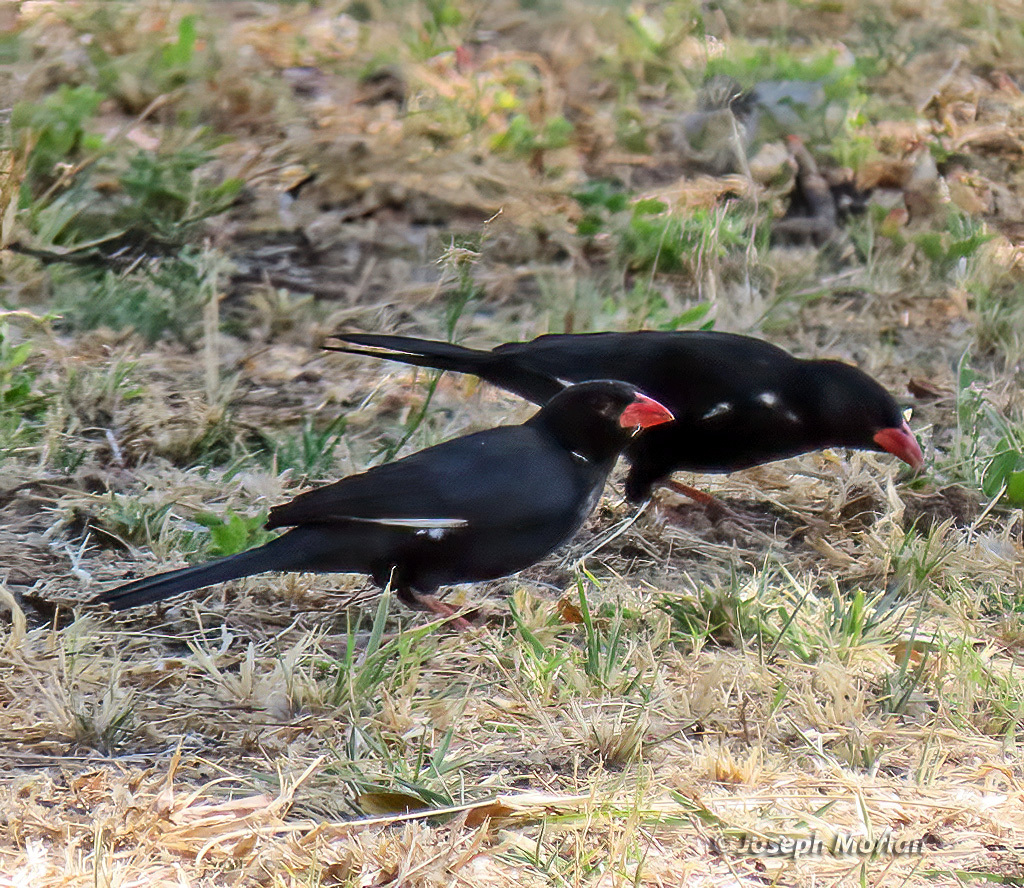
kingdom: Animalia
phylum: Chordata
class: Aves
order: Passeriformes
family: Ploceidae
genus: Bubalornis
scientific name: Bubalornis niger
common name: Red-billed buffalo weaver
